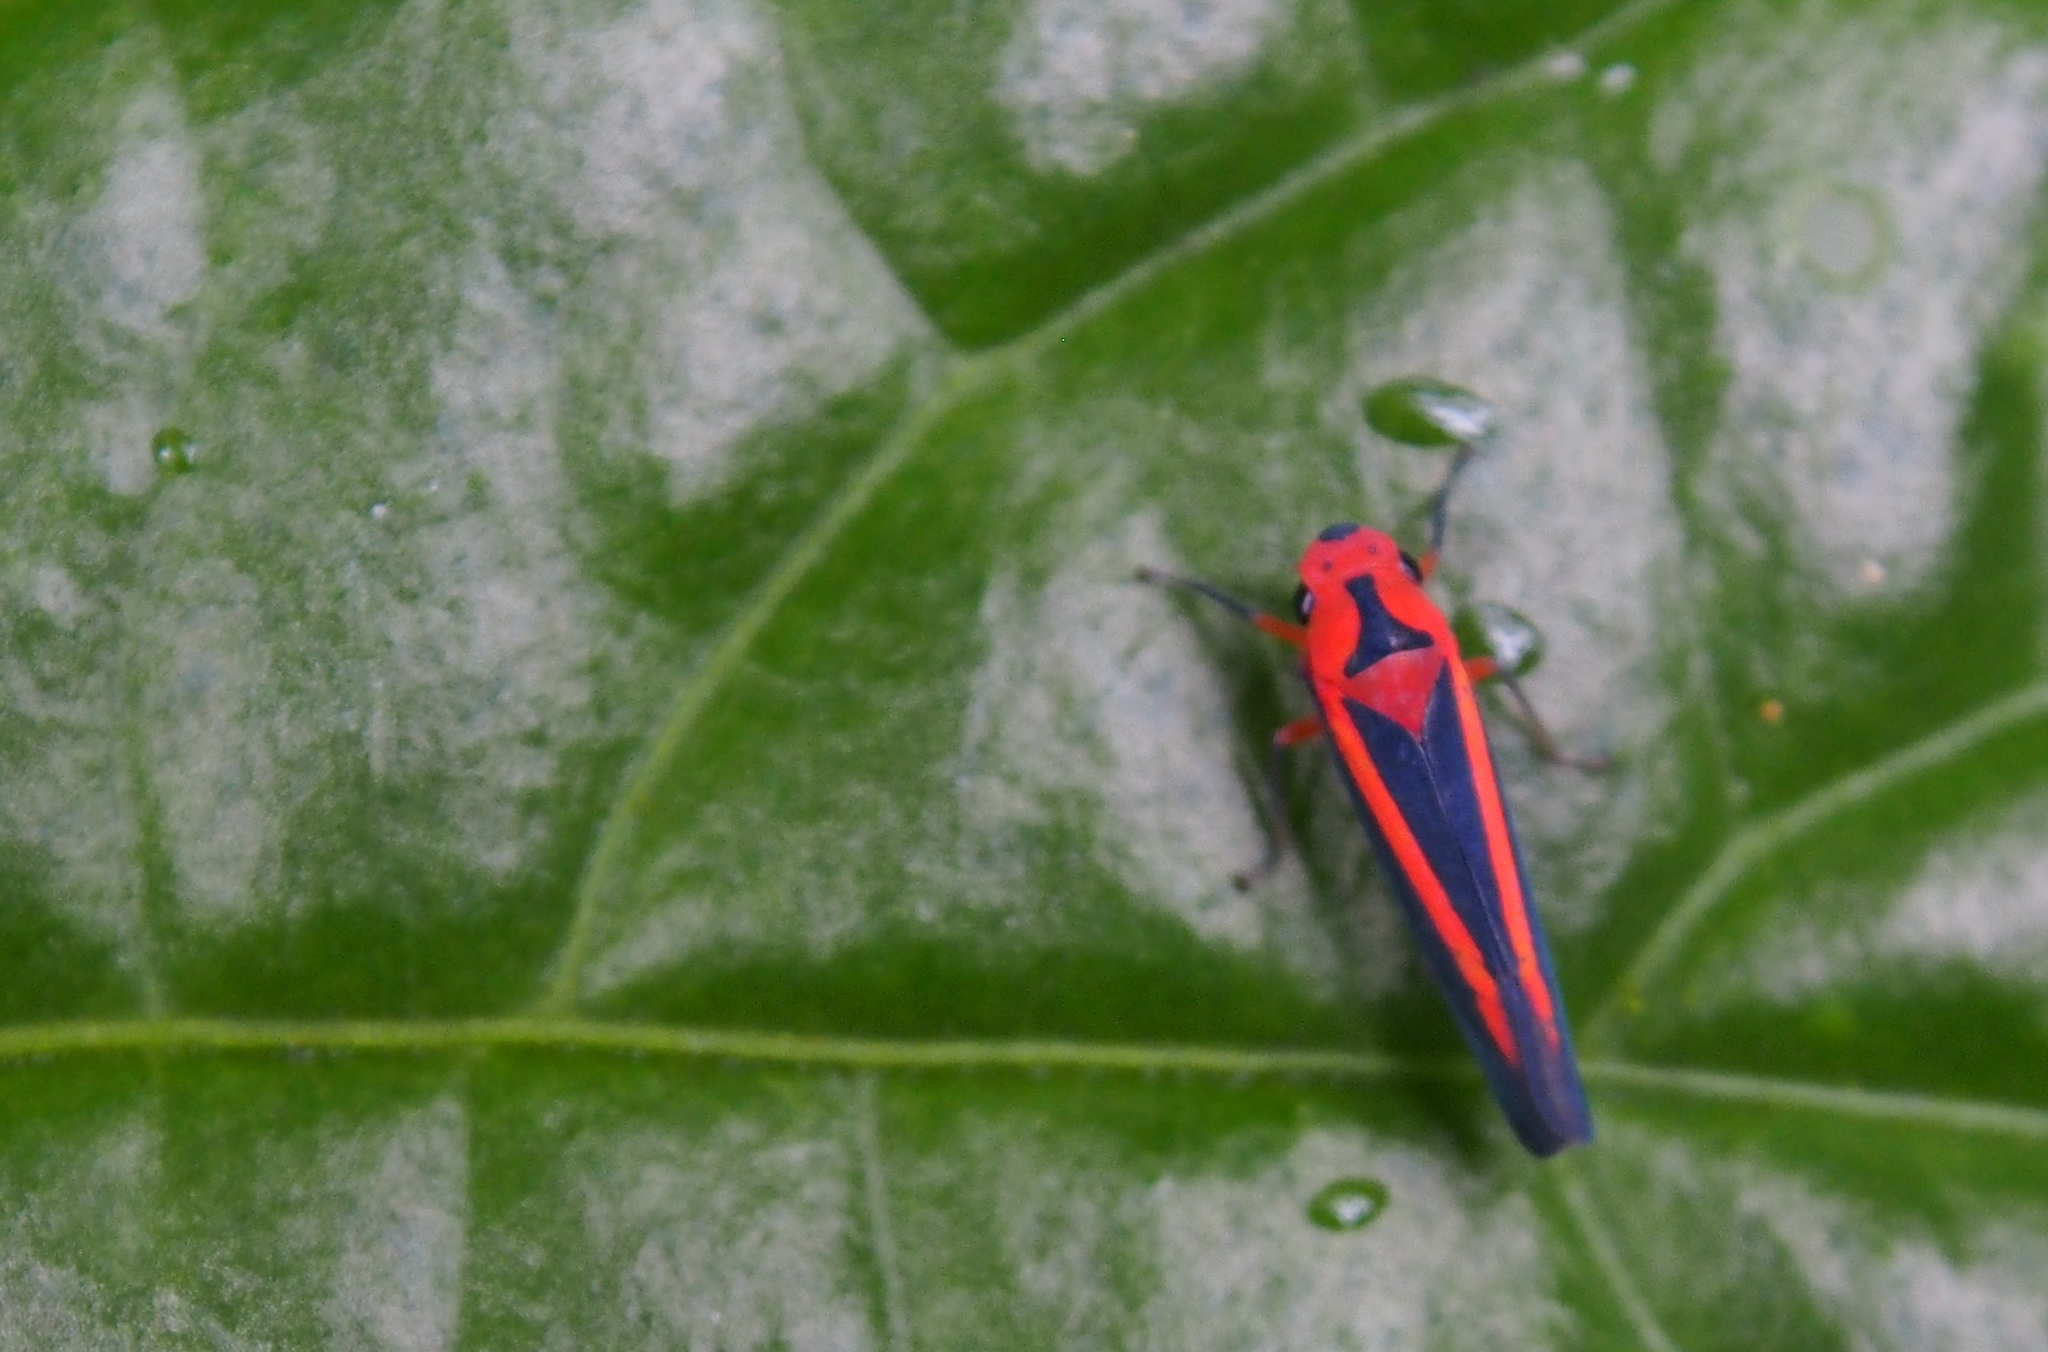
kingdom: Animalia
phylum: Arthropoda
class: Insecta
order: Hemiptera
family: Cicadellidae
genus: Gillonella
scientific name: Gillonella ampulla
